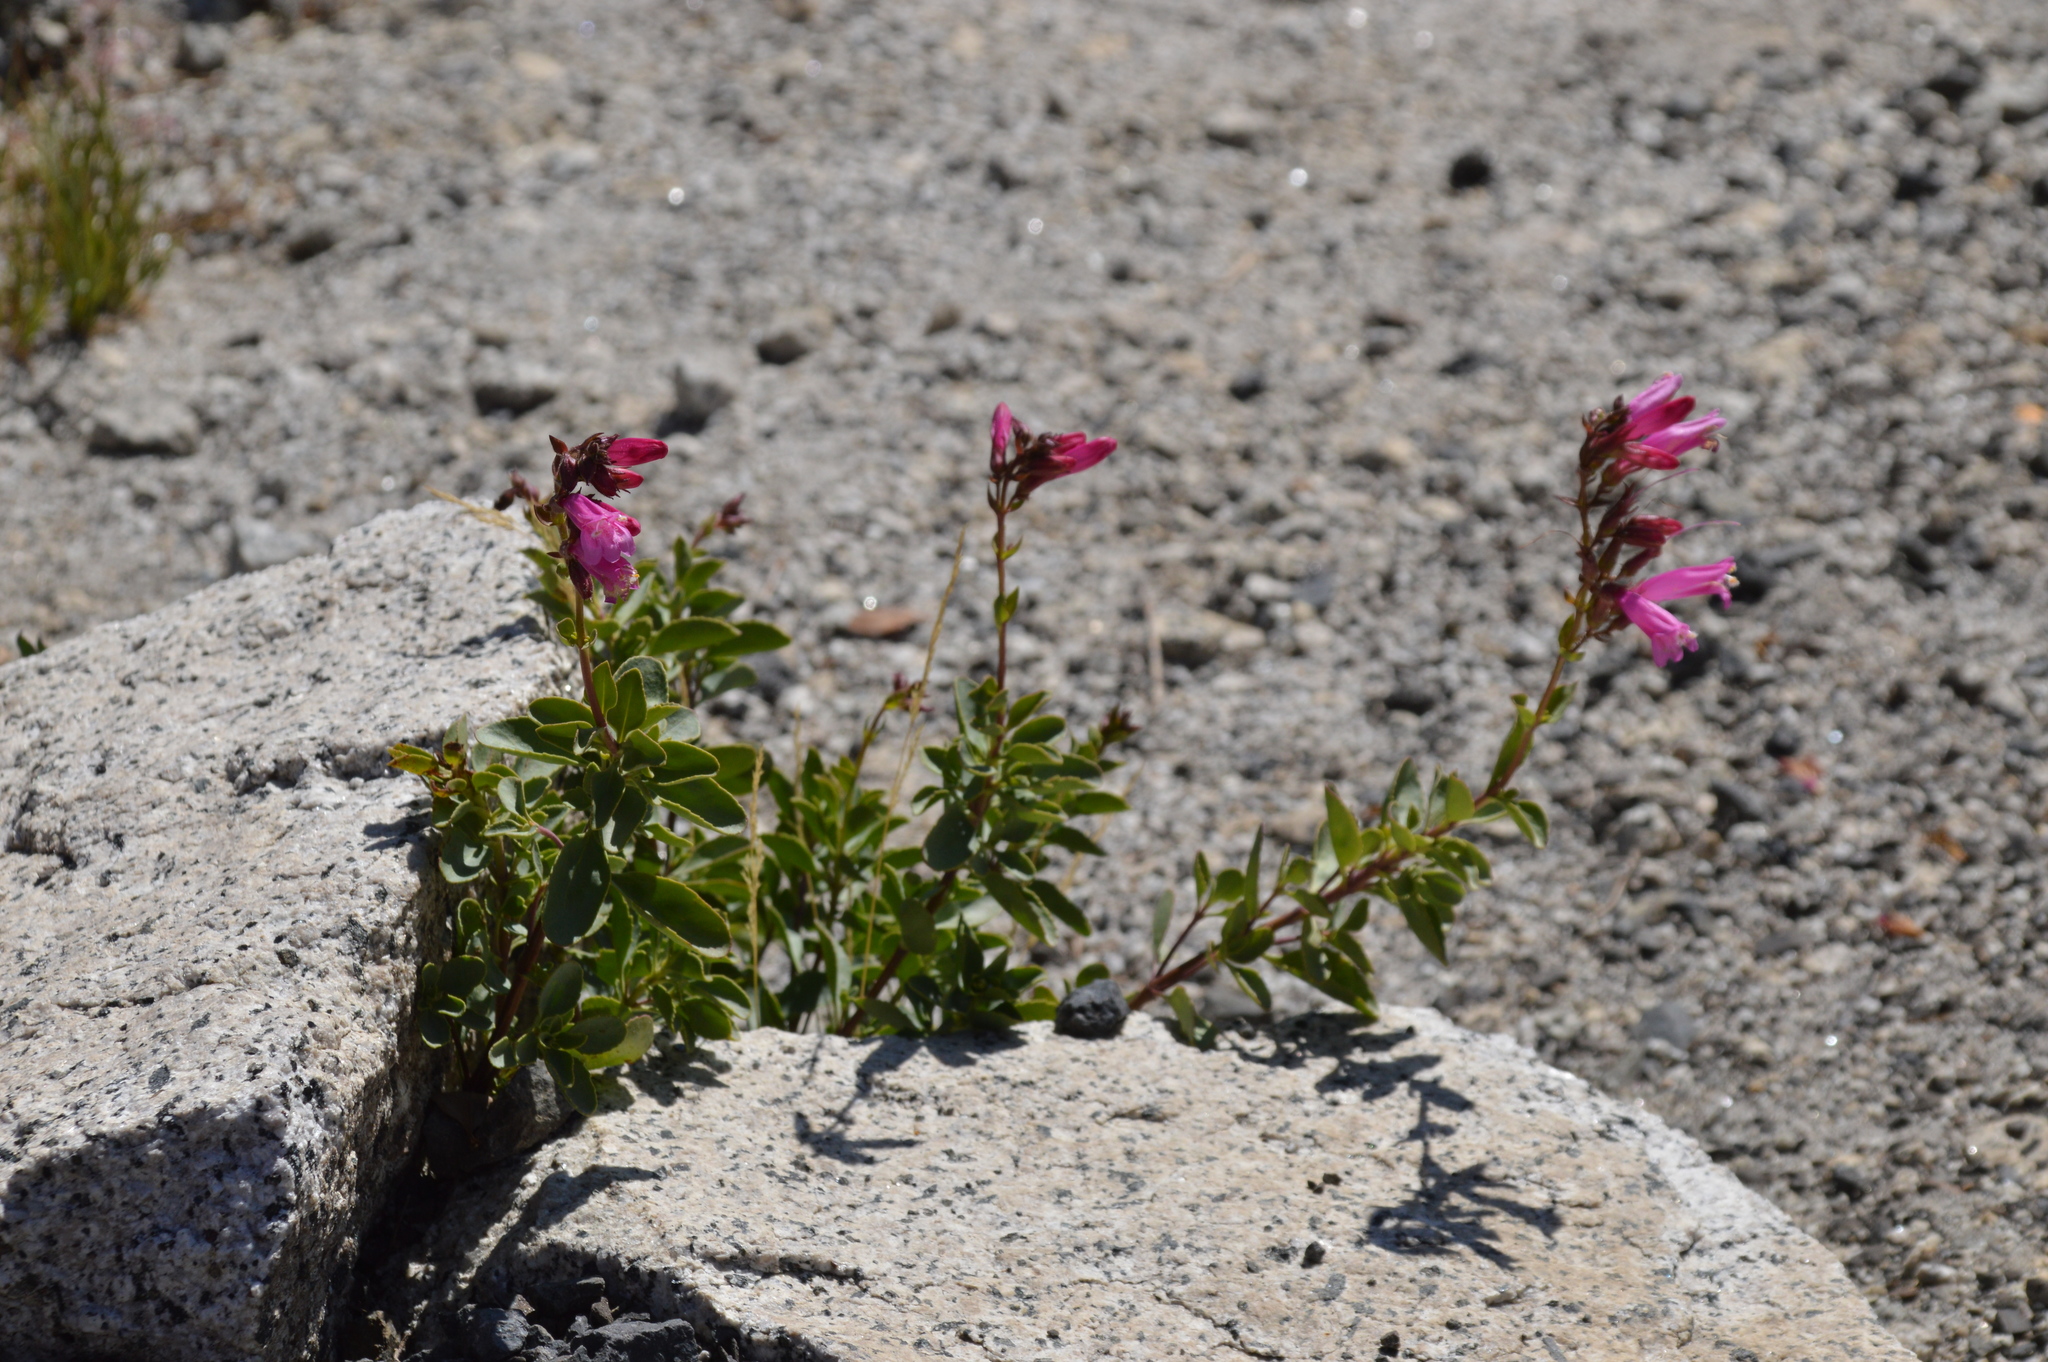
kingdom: Plantae
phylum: Tracheophyta
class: Magnoliopsida
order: Lamiales
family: Plantaginaceae
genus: Penstemon
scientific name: Penstemon newberryi
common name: Mountain-pride
